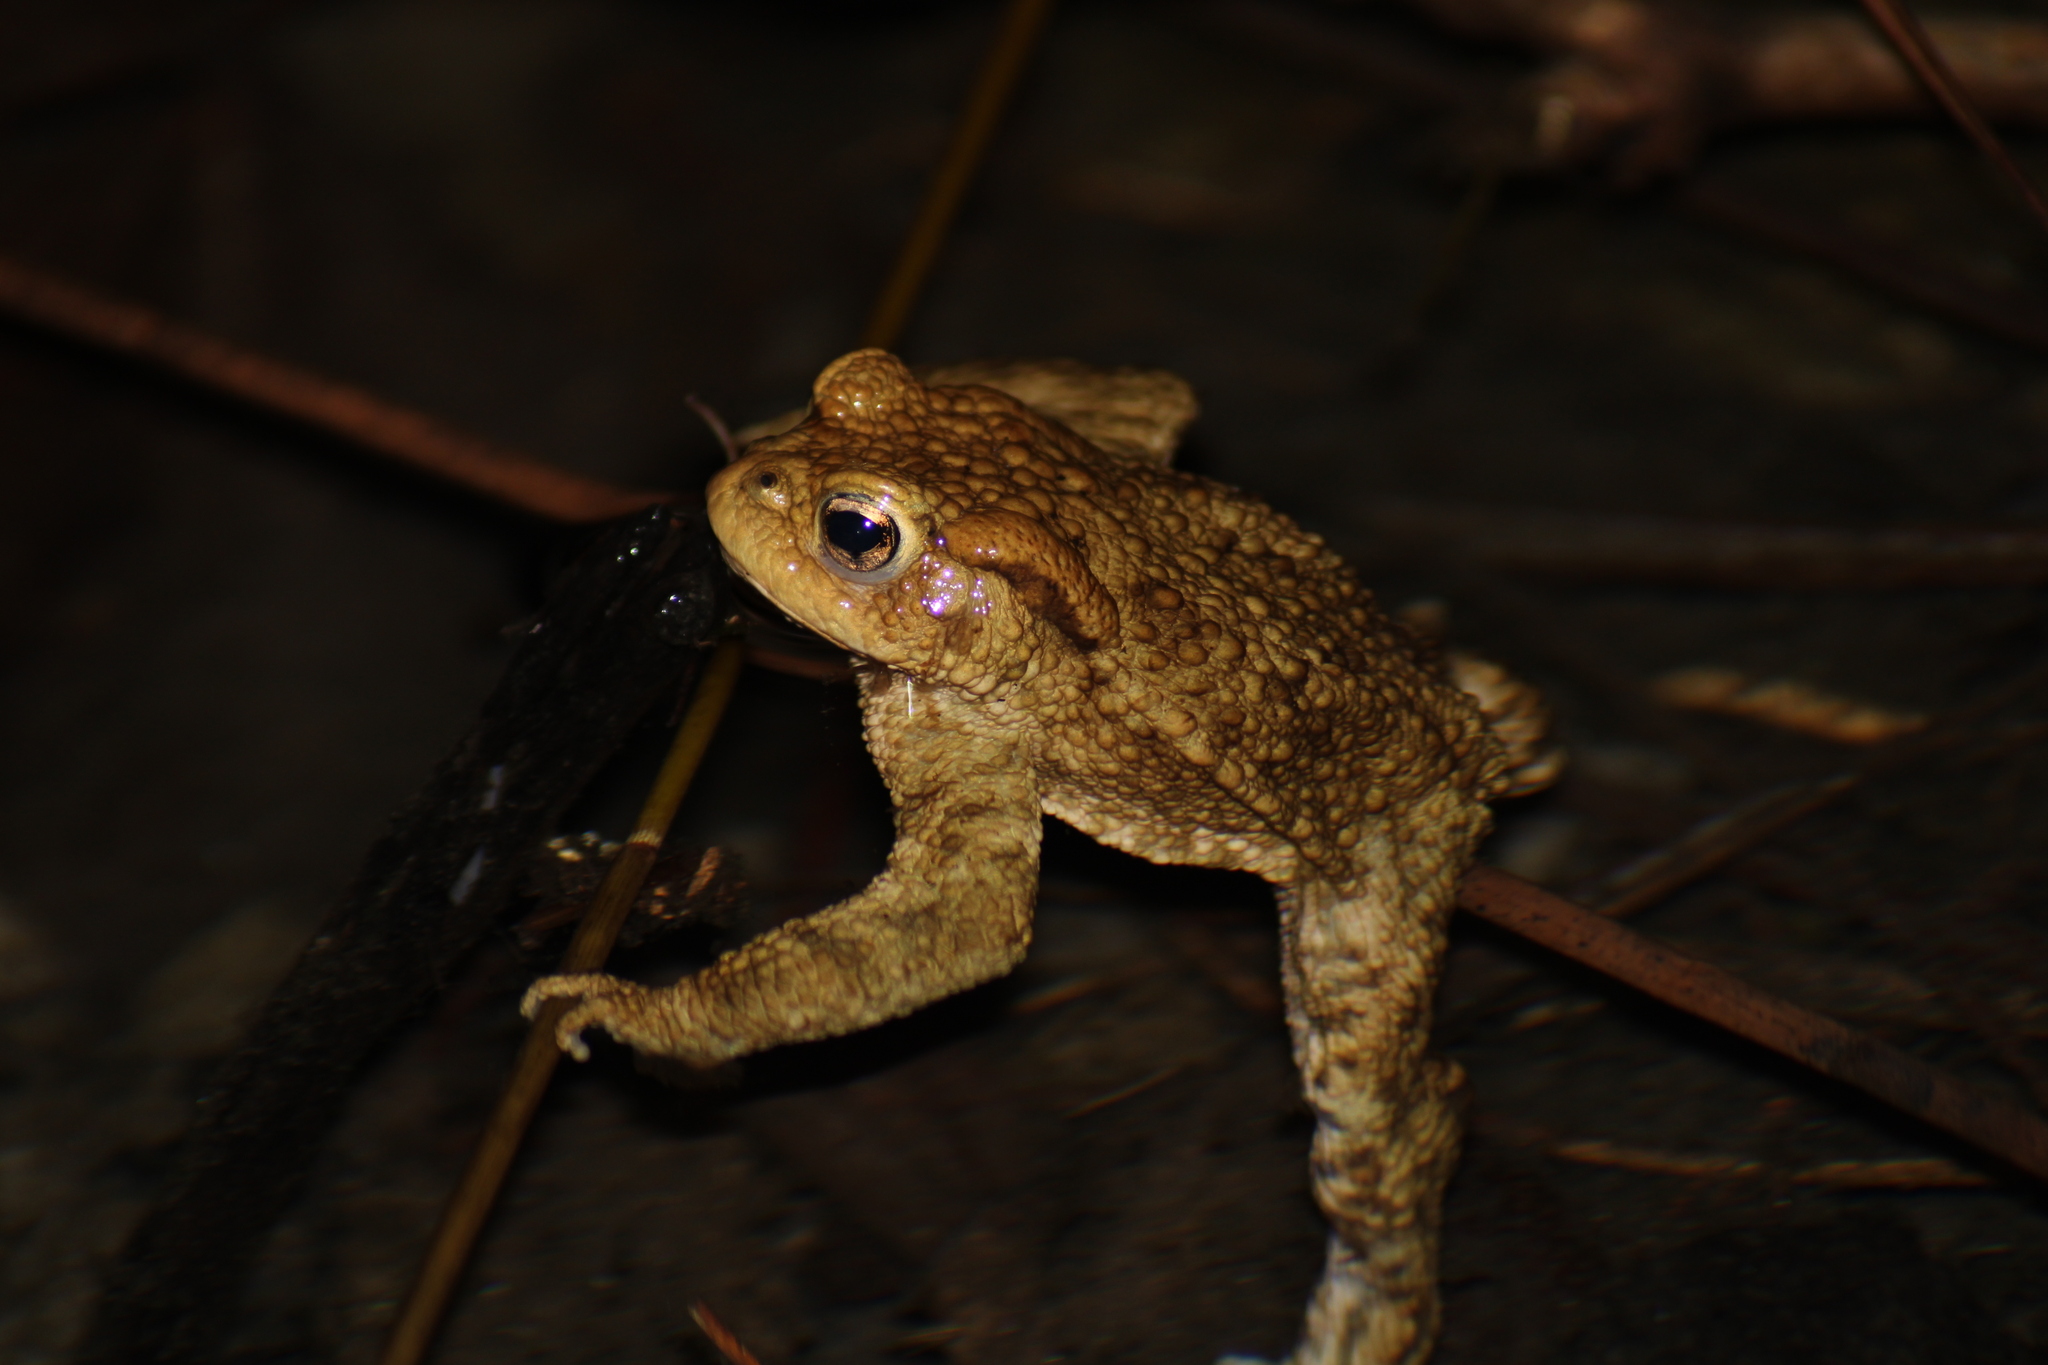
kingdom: Animalia
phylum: Chordata
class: Amphibia
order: Anura
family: Bufonidae
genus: Bufo
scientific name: Bufo bufo
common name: Common toad
